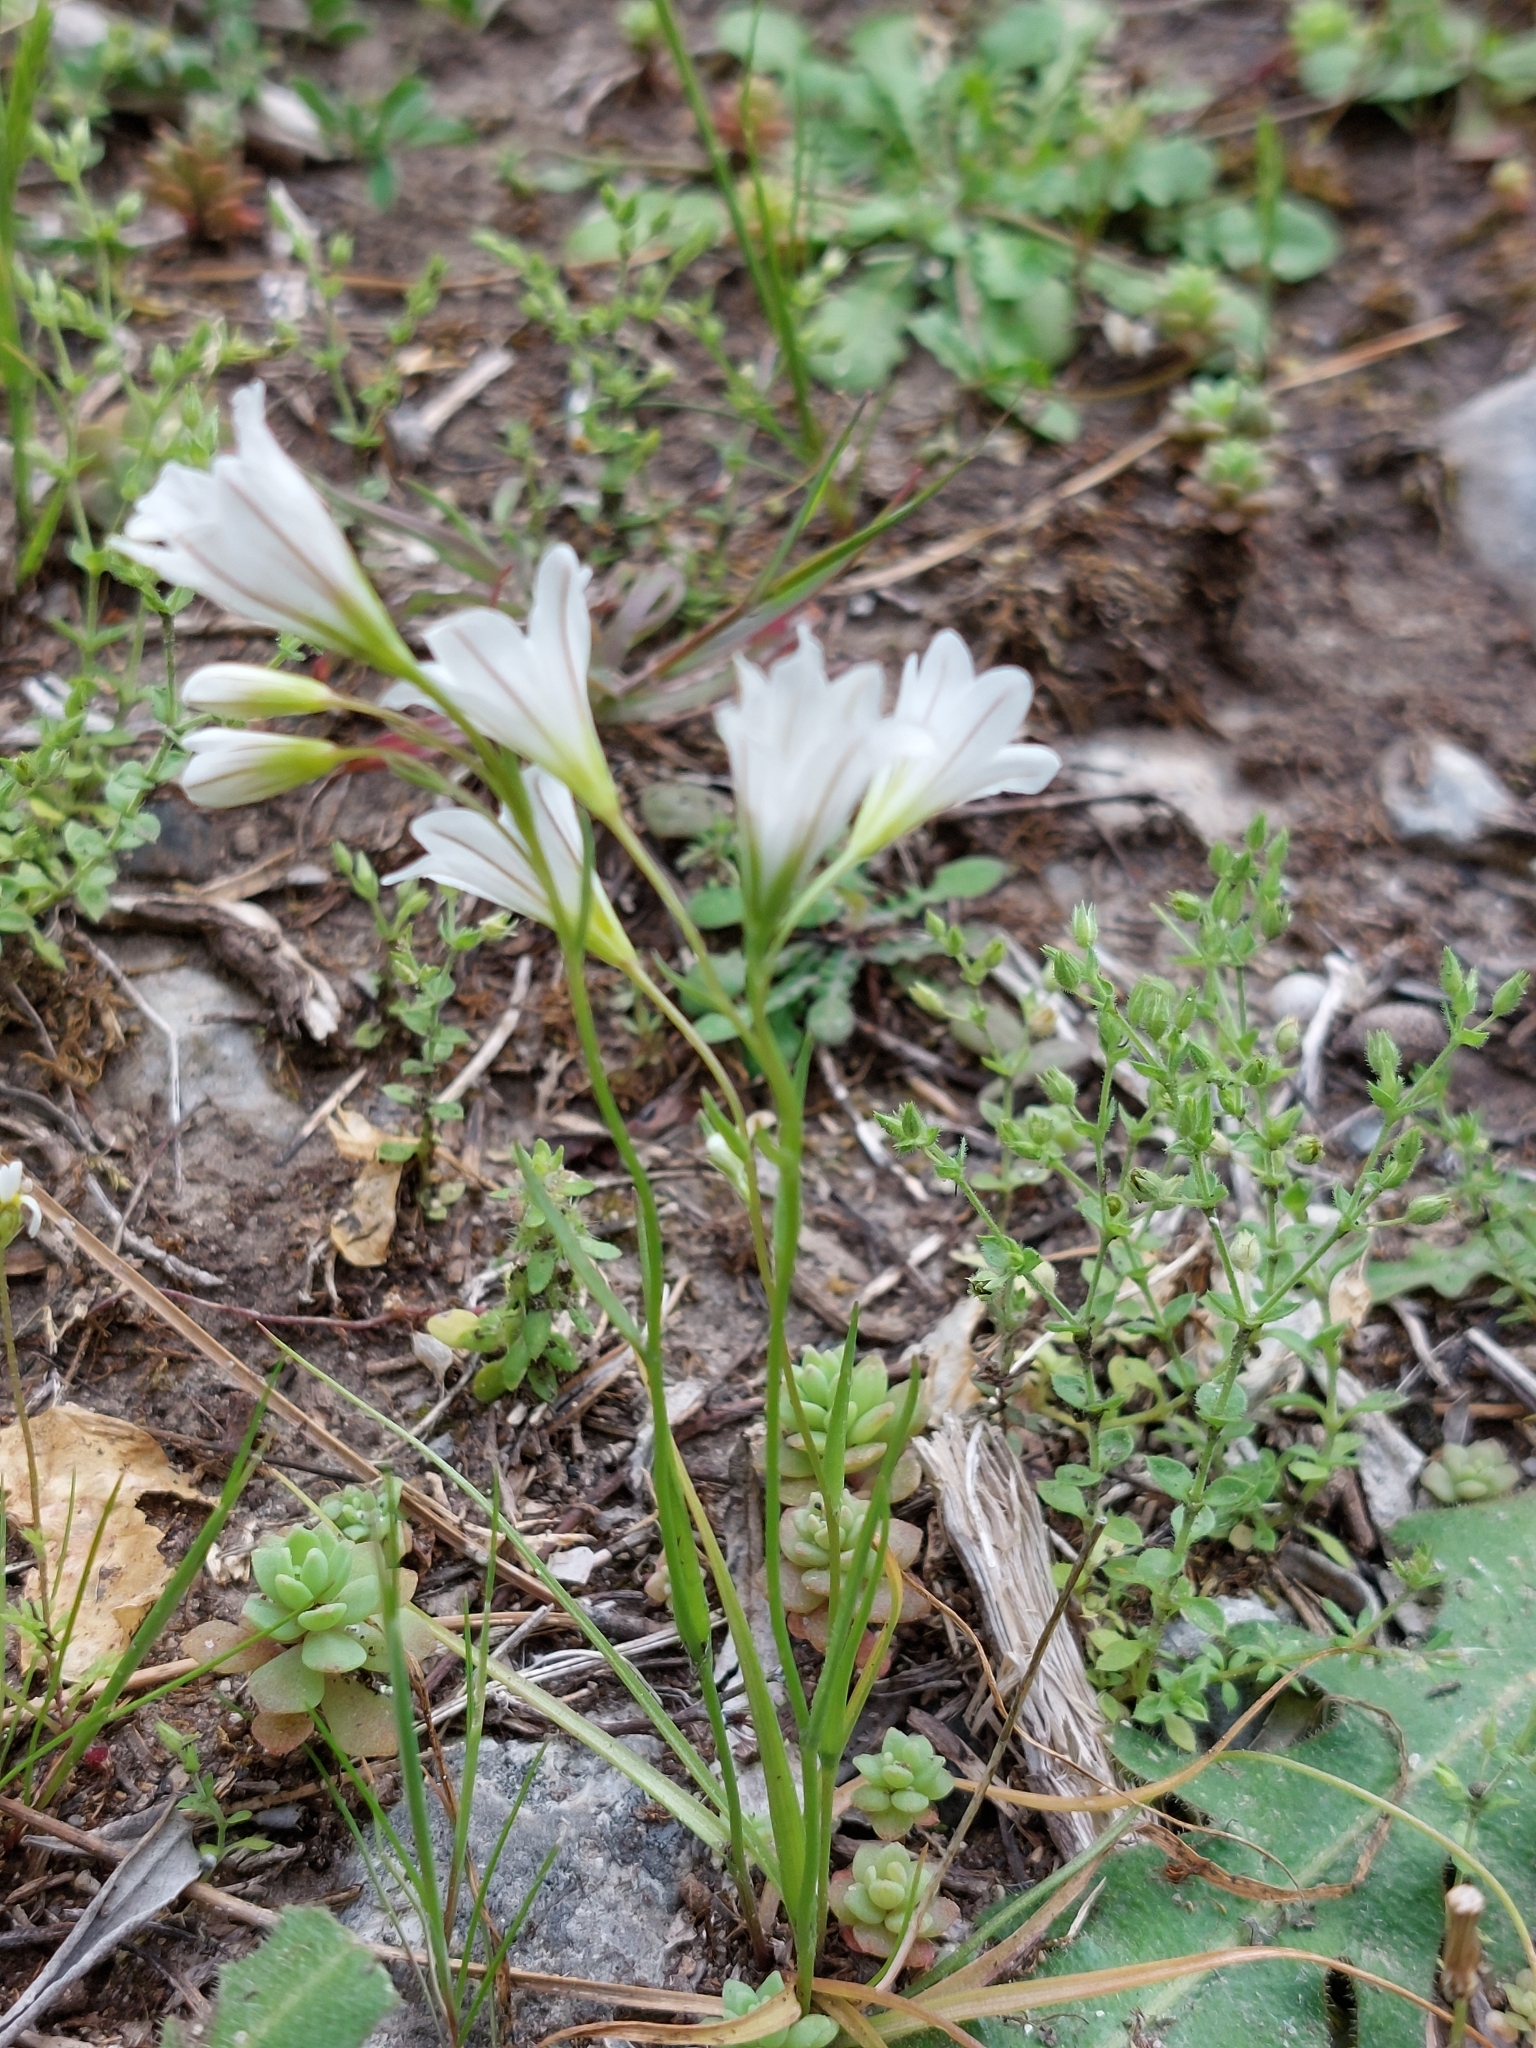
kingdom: Plantae
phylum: Tracheophyta
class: Liliopsida
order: Liliales
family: Liliaceae
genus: Gagea
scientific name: Gagea graeca
